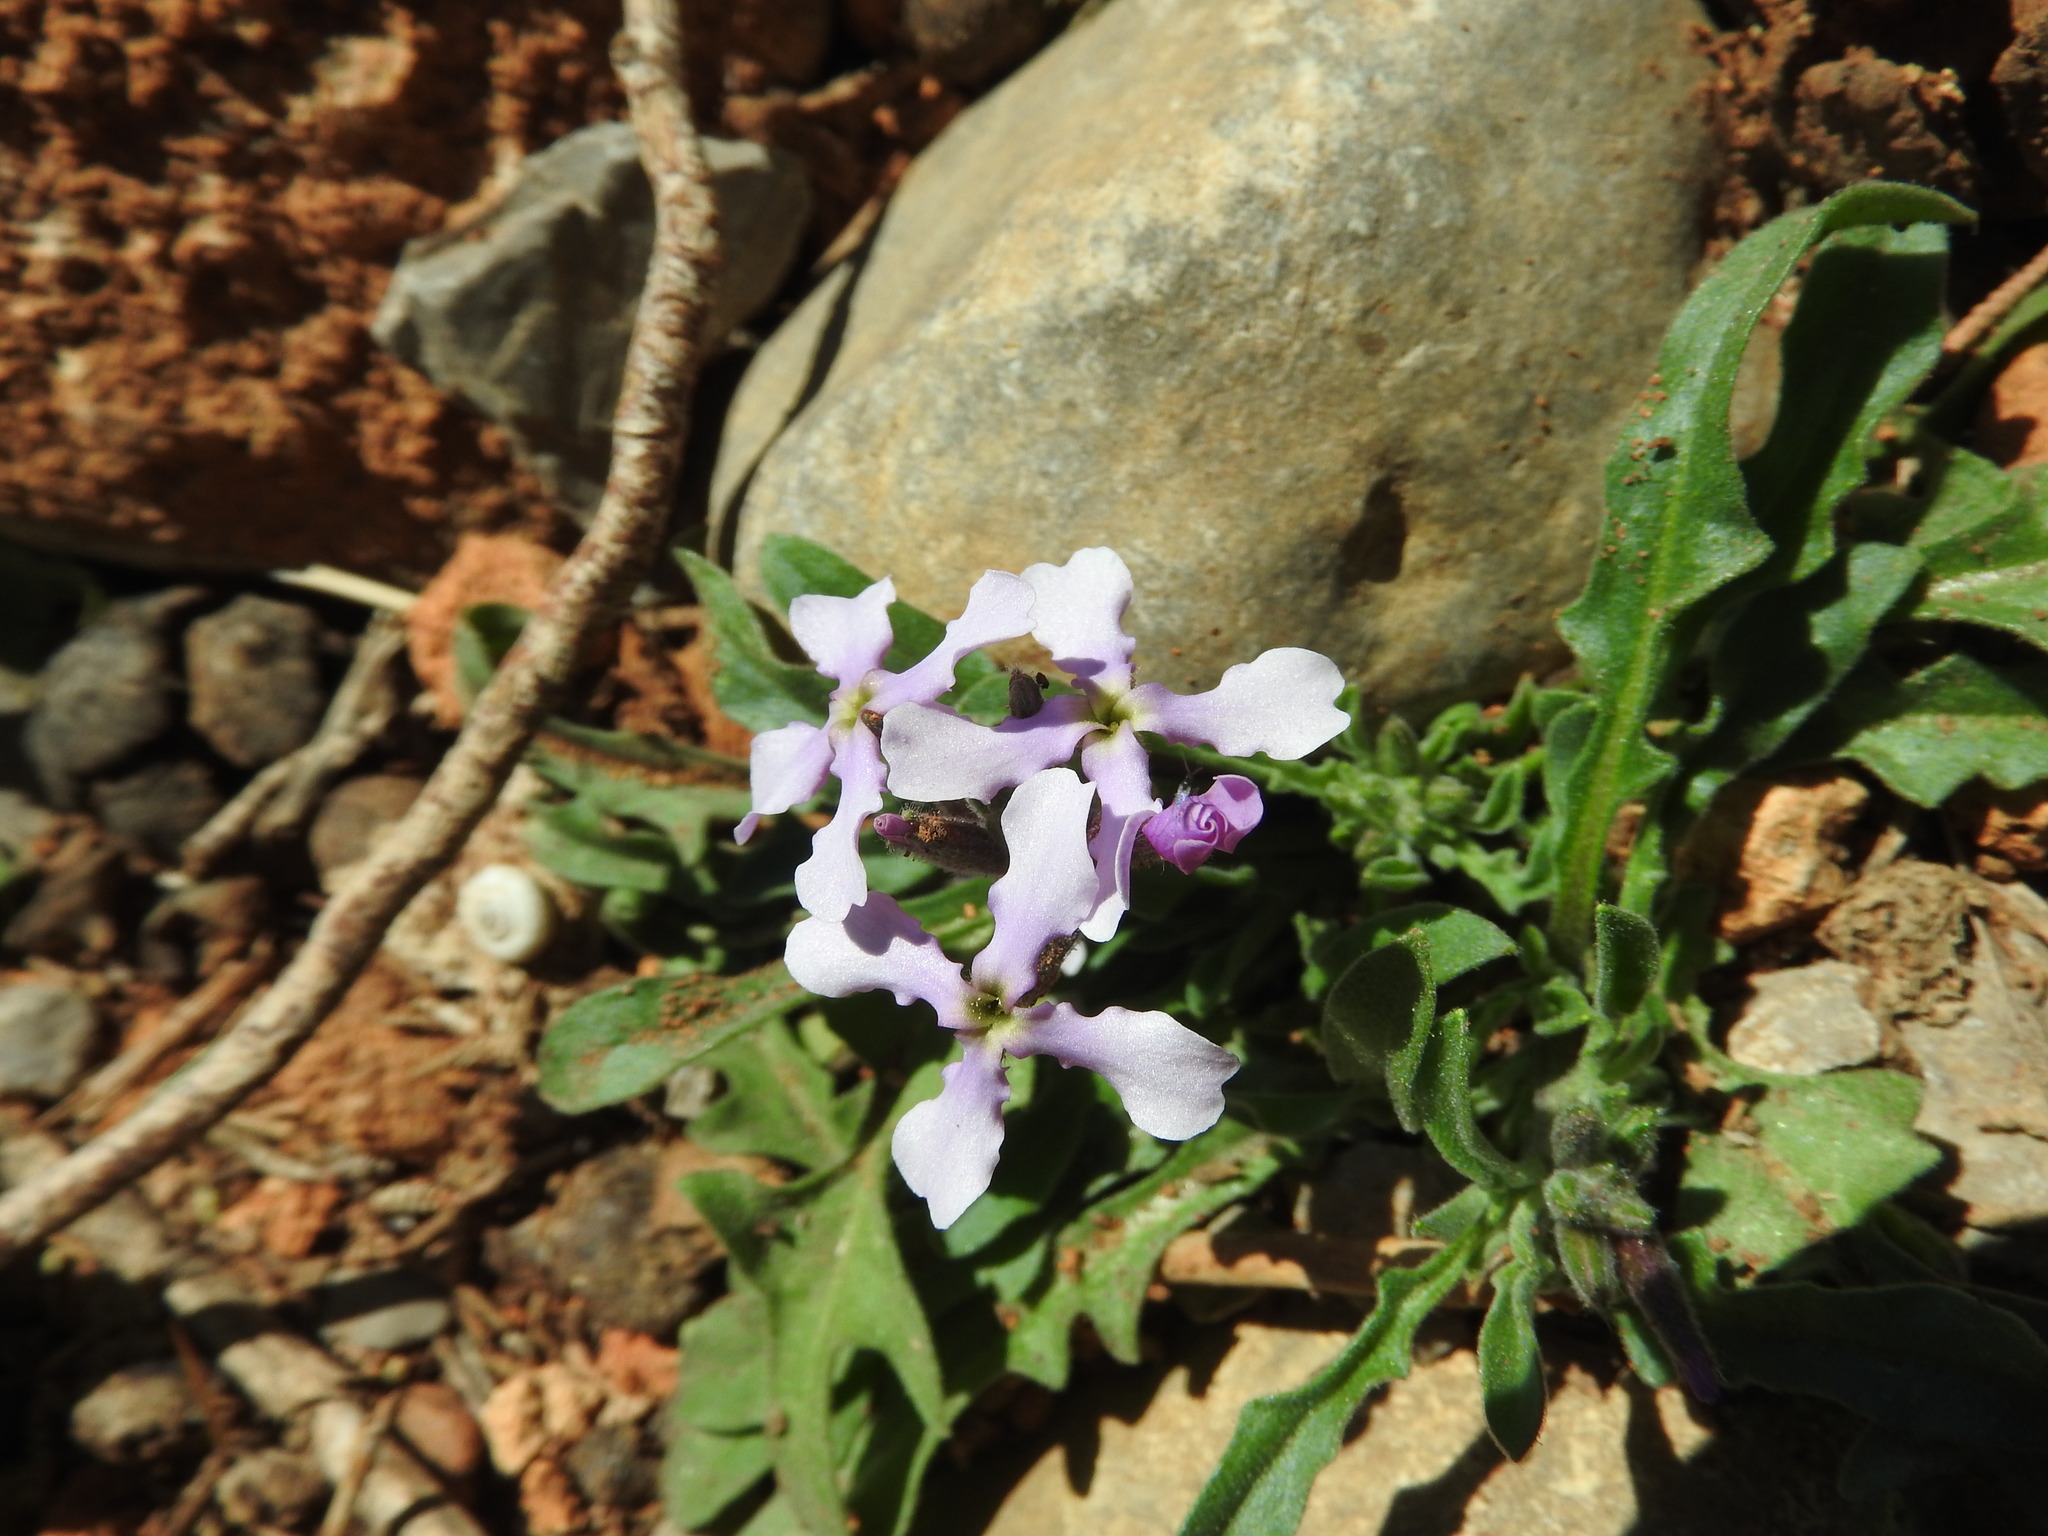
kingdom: Plantae
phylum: Tracheophyta
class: Magnoliopsida
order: Brassicales
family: Brassicaceae
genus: Matthiola
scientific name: Matthiola lunata
